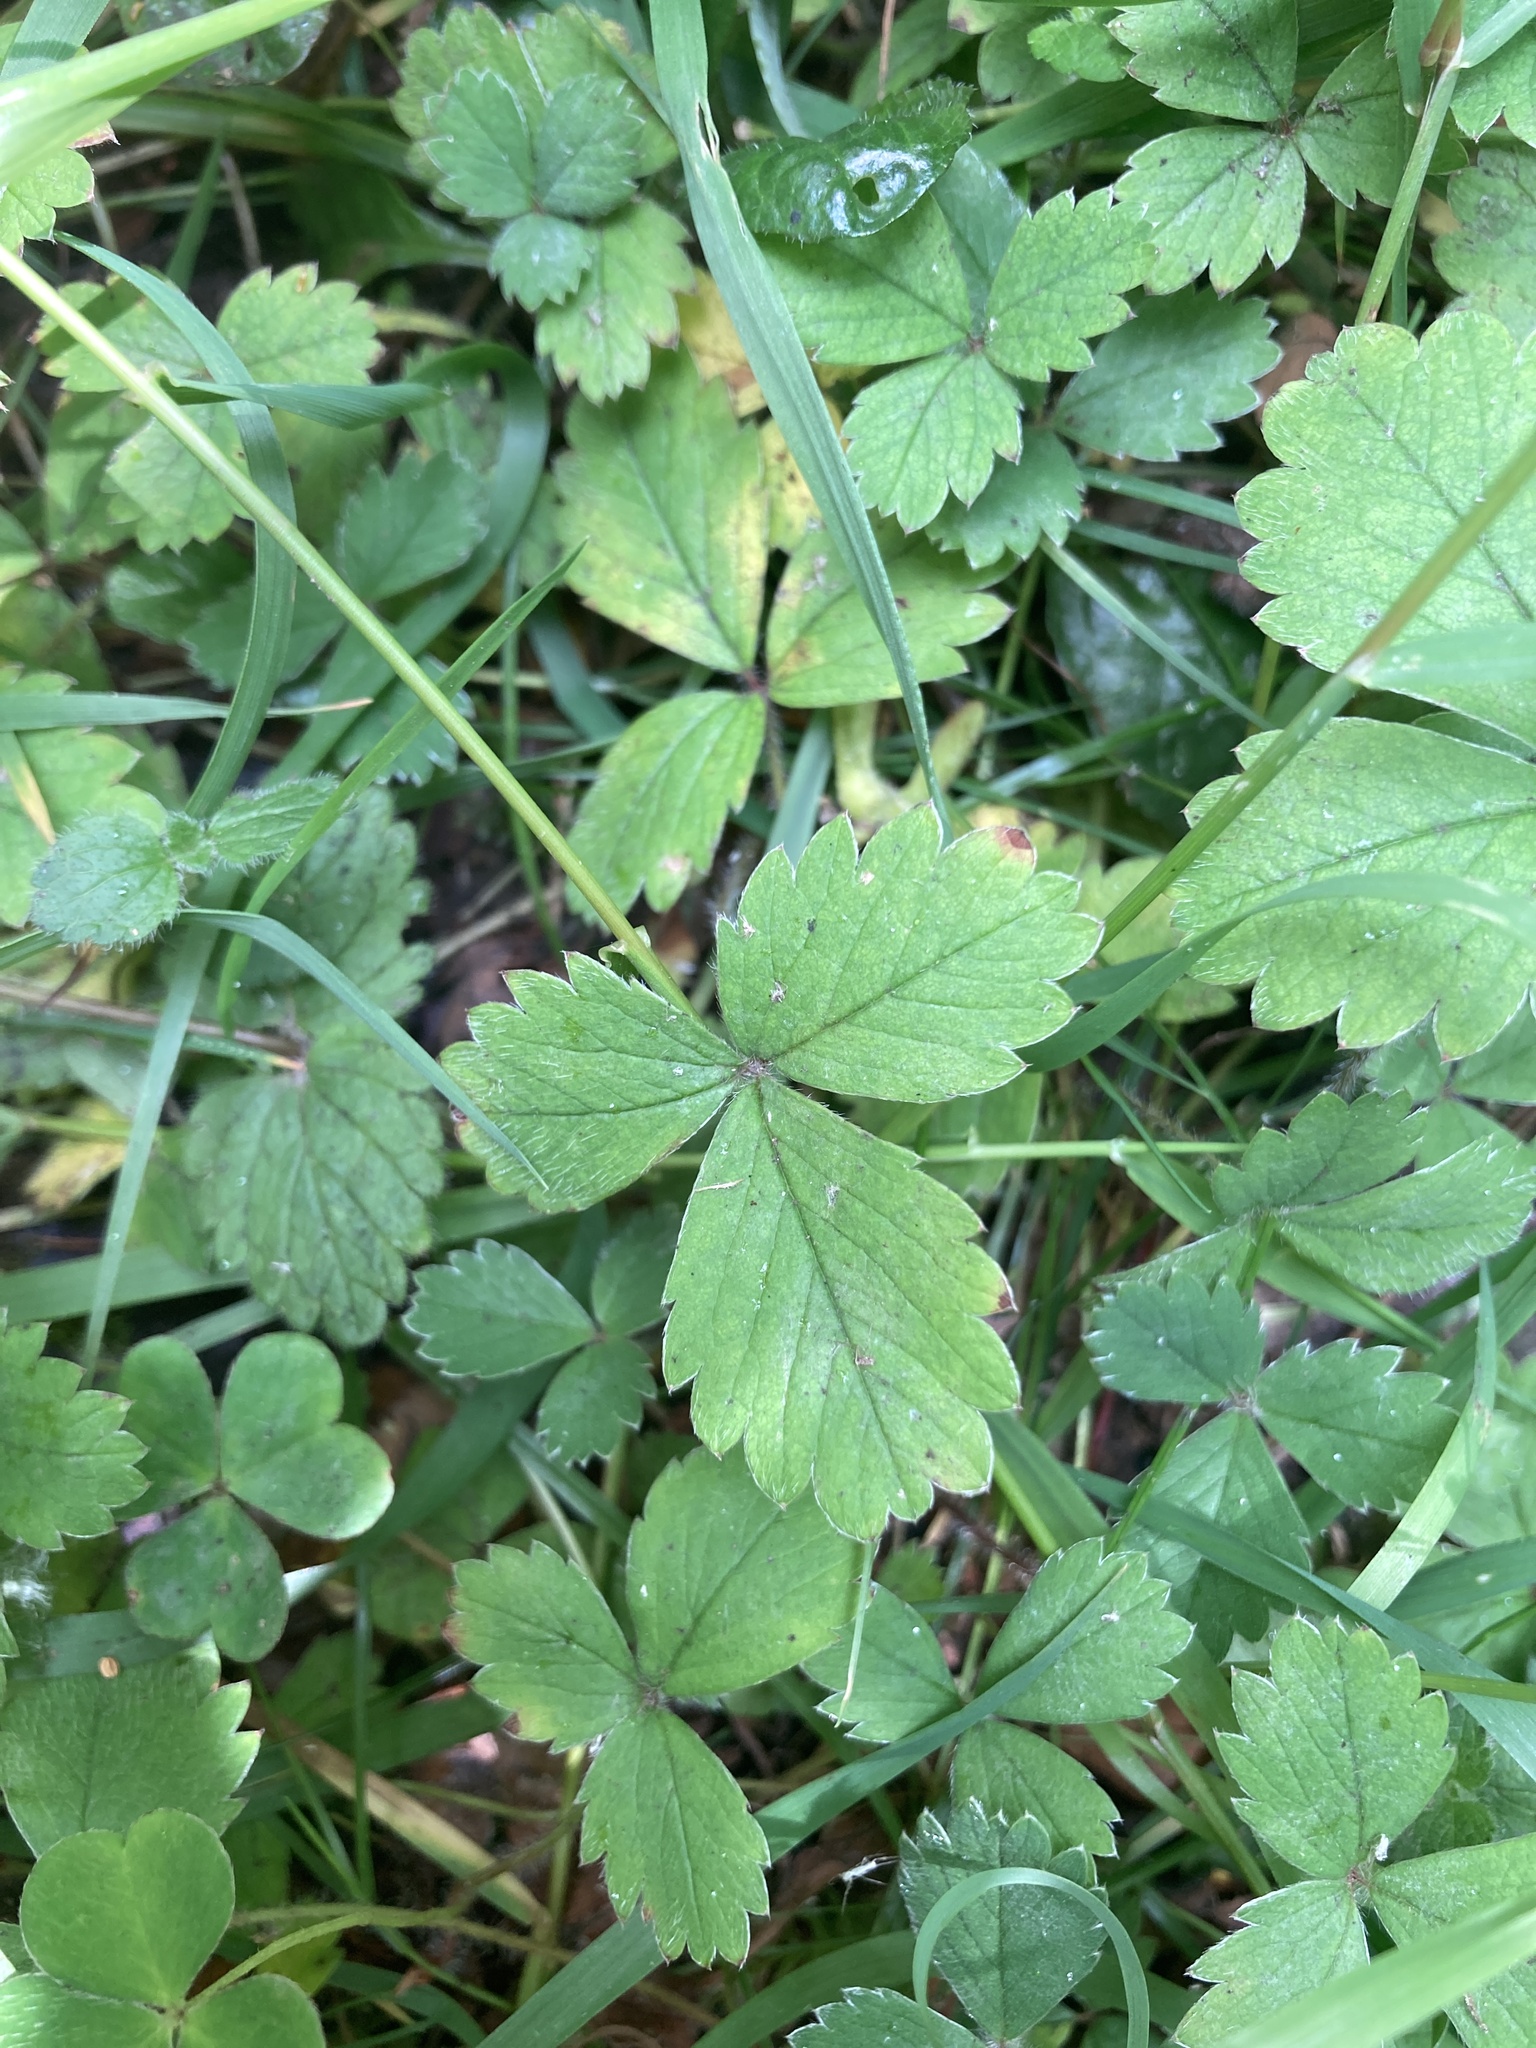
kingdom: Plantae
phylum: Tracheophyta
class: Magnoliopsida
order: Rosales
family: Rosaceae
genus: Potentilla
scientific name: Potentilla sterilis
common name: Barren strawberry
